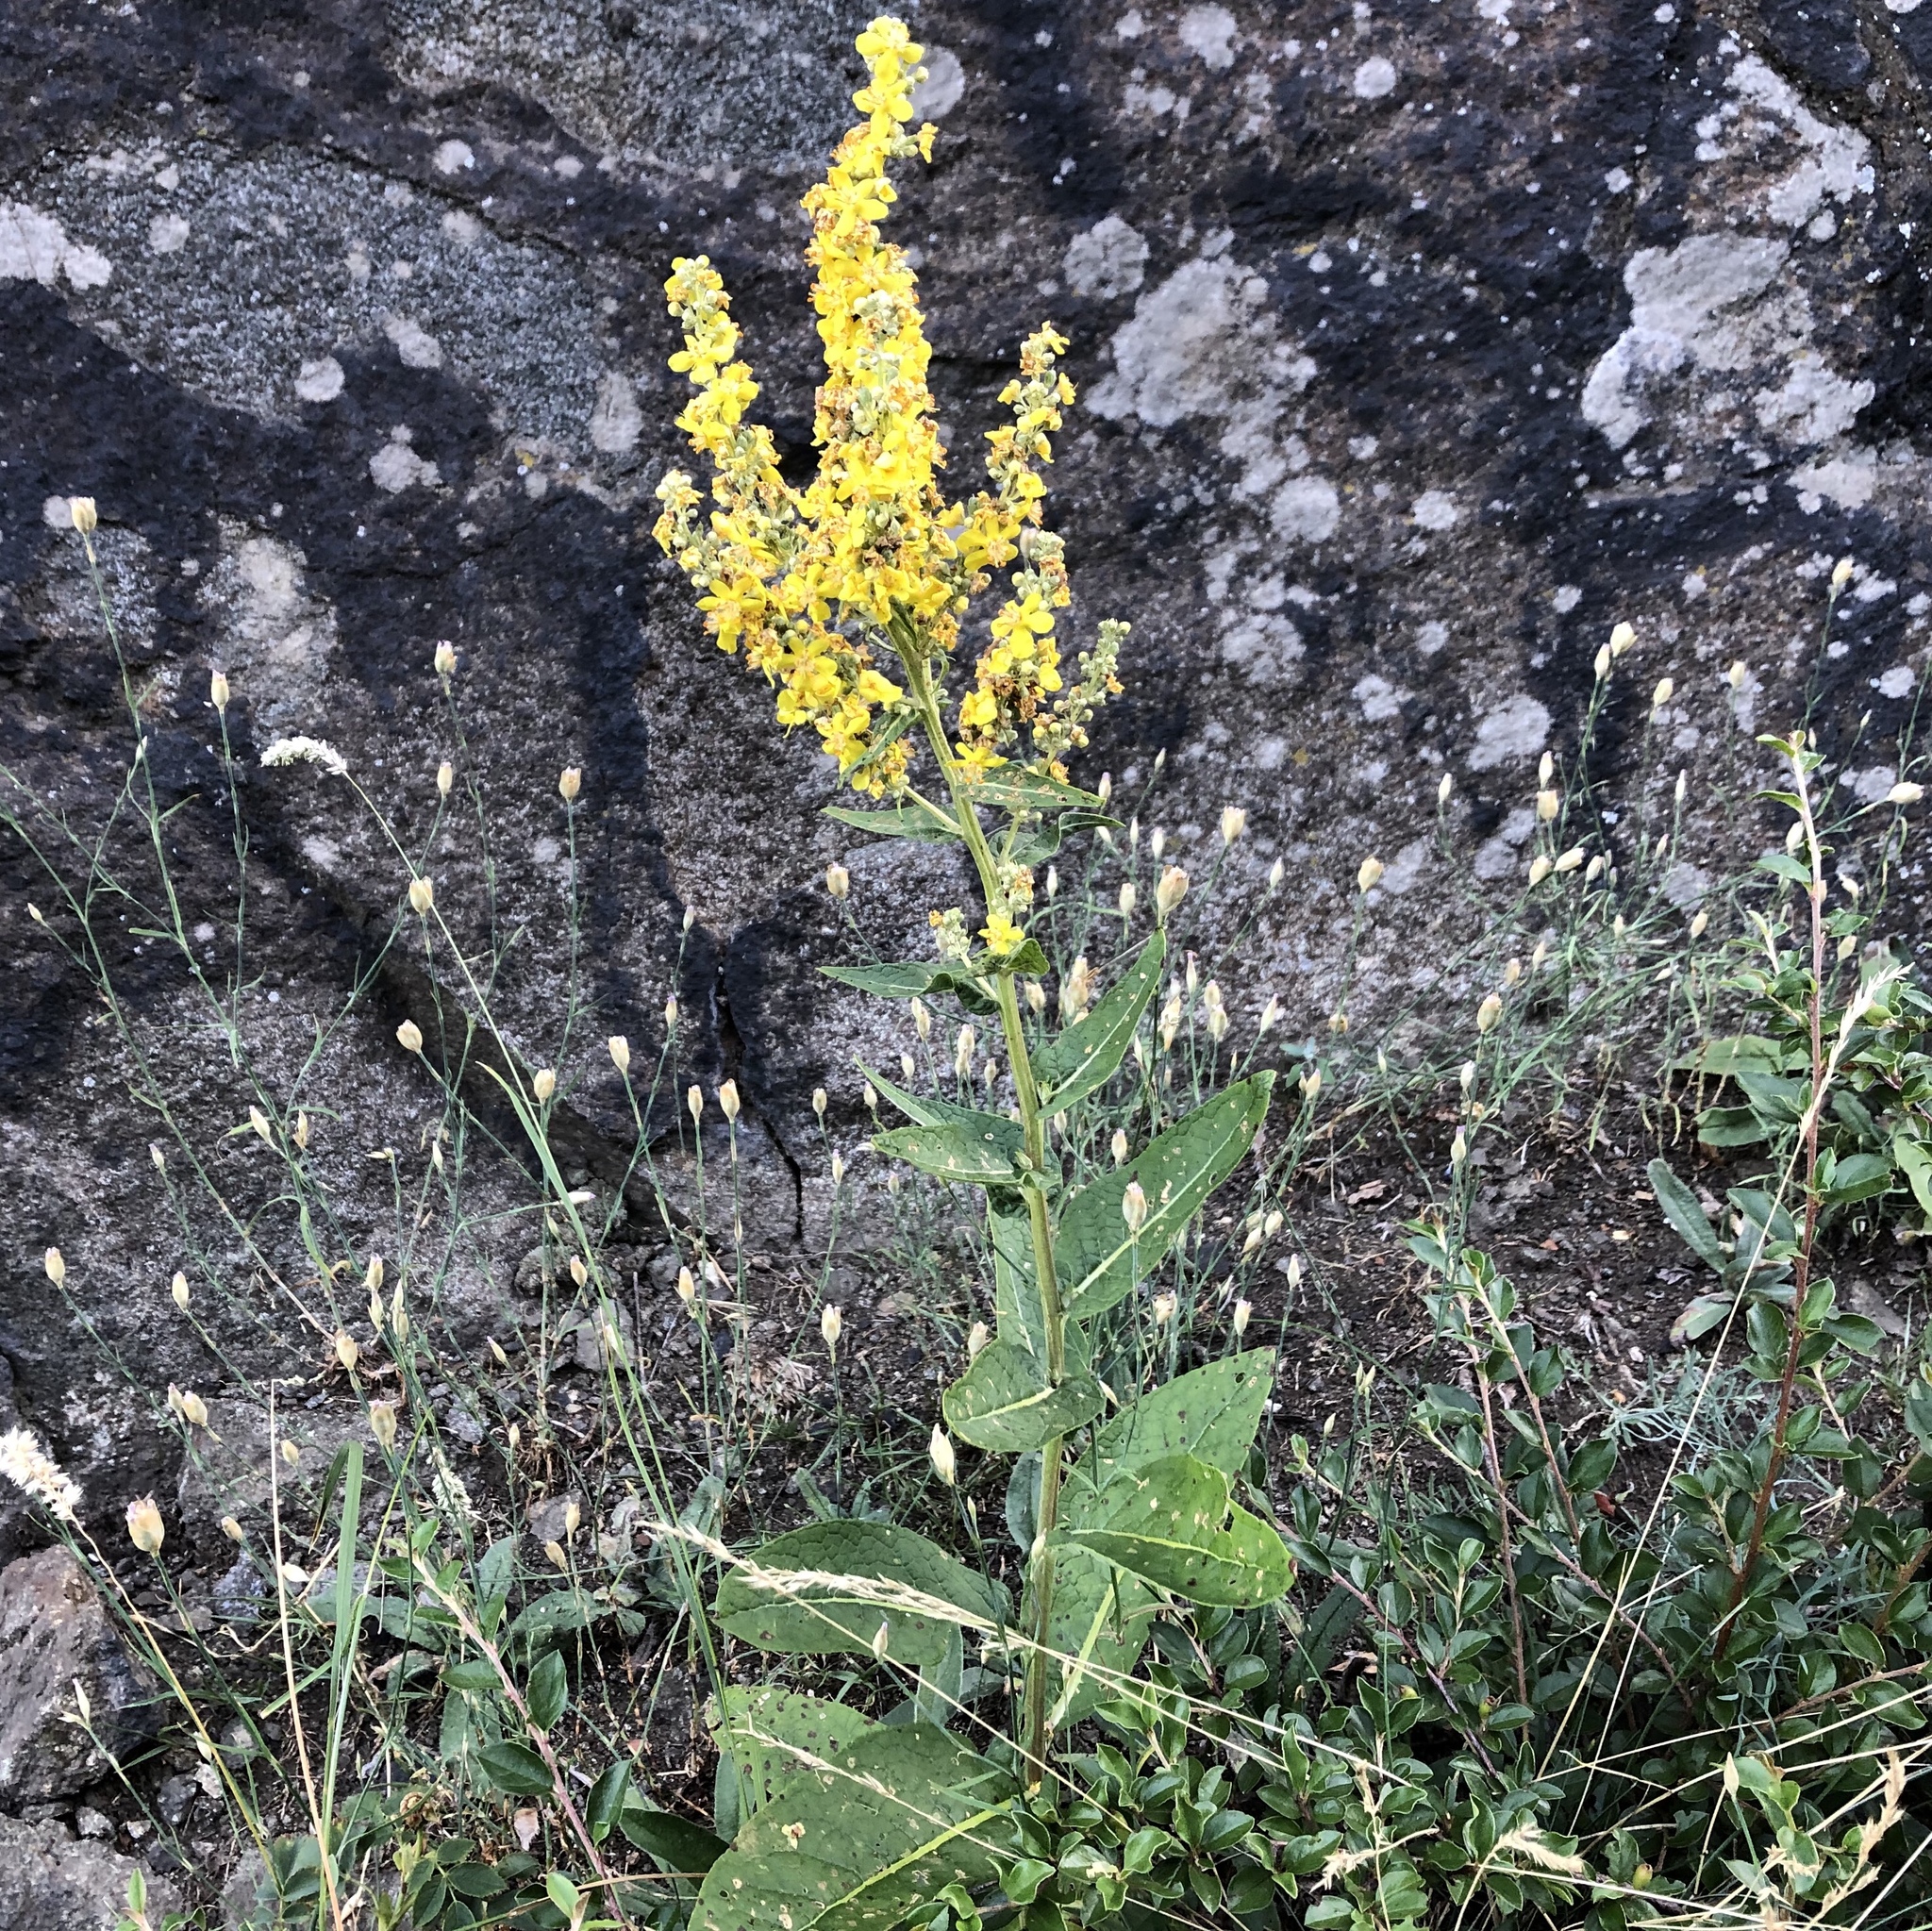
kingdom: Plantae
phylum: Tracheophyta
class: Magnoliopsida
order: Lamiales
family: Scrophulariaceae
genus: Verbascum
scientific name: Verbascum lychnitis
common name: White mullein
